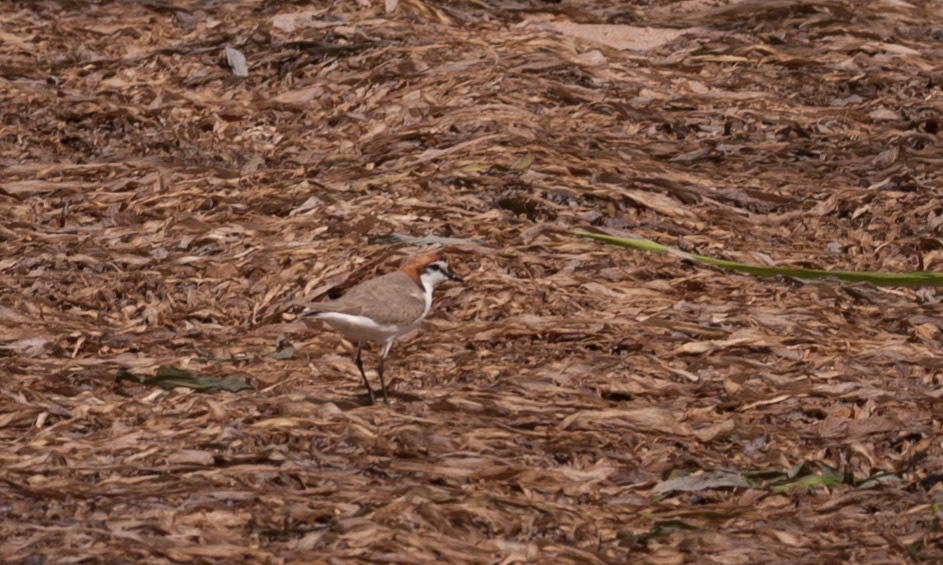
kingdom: Animalia
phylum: Chordata
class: Aves
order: Charadriiformes
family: Charadriidae
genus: Anarhynchus
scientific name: Anarhynchus
